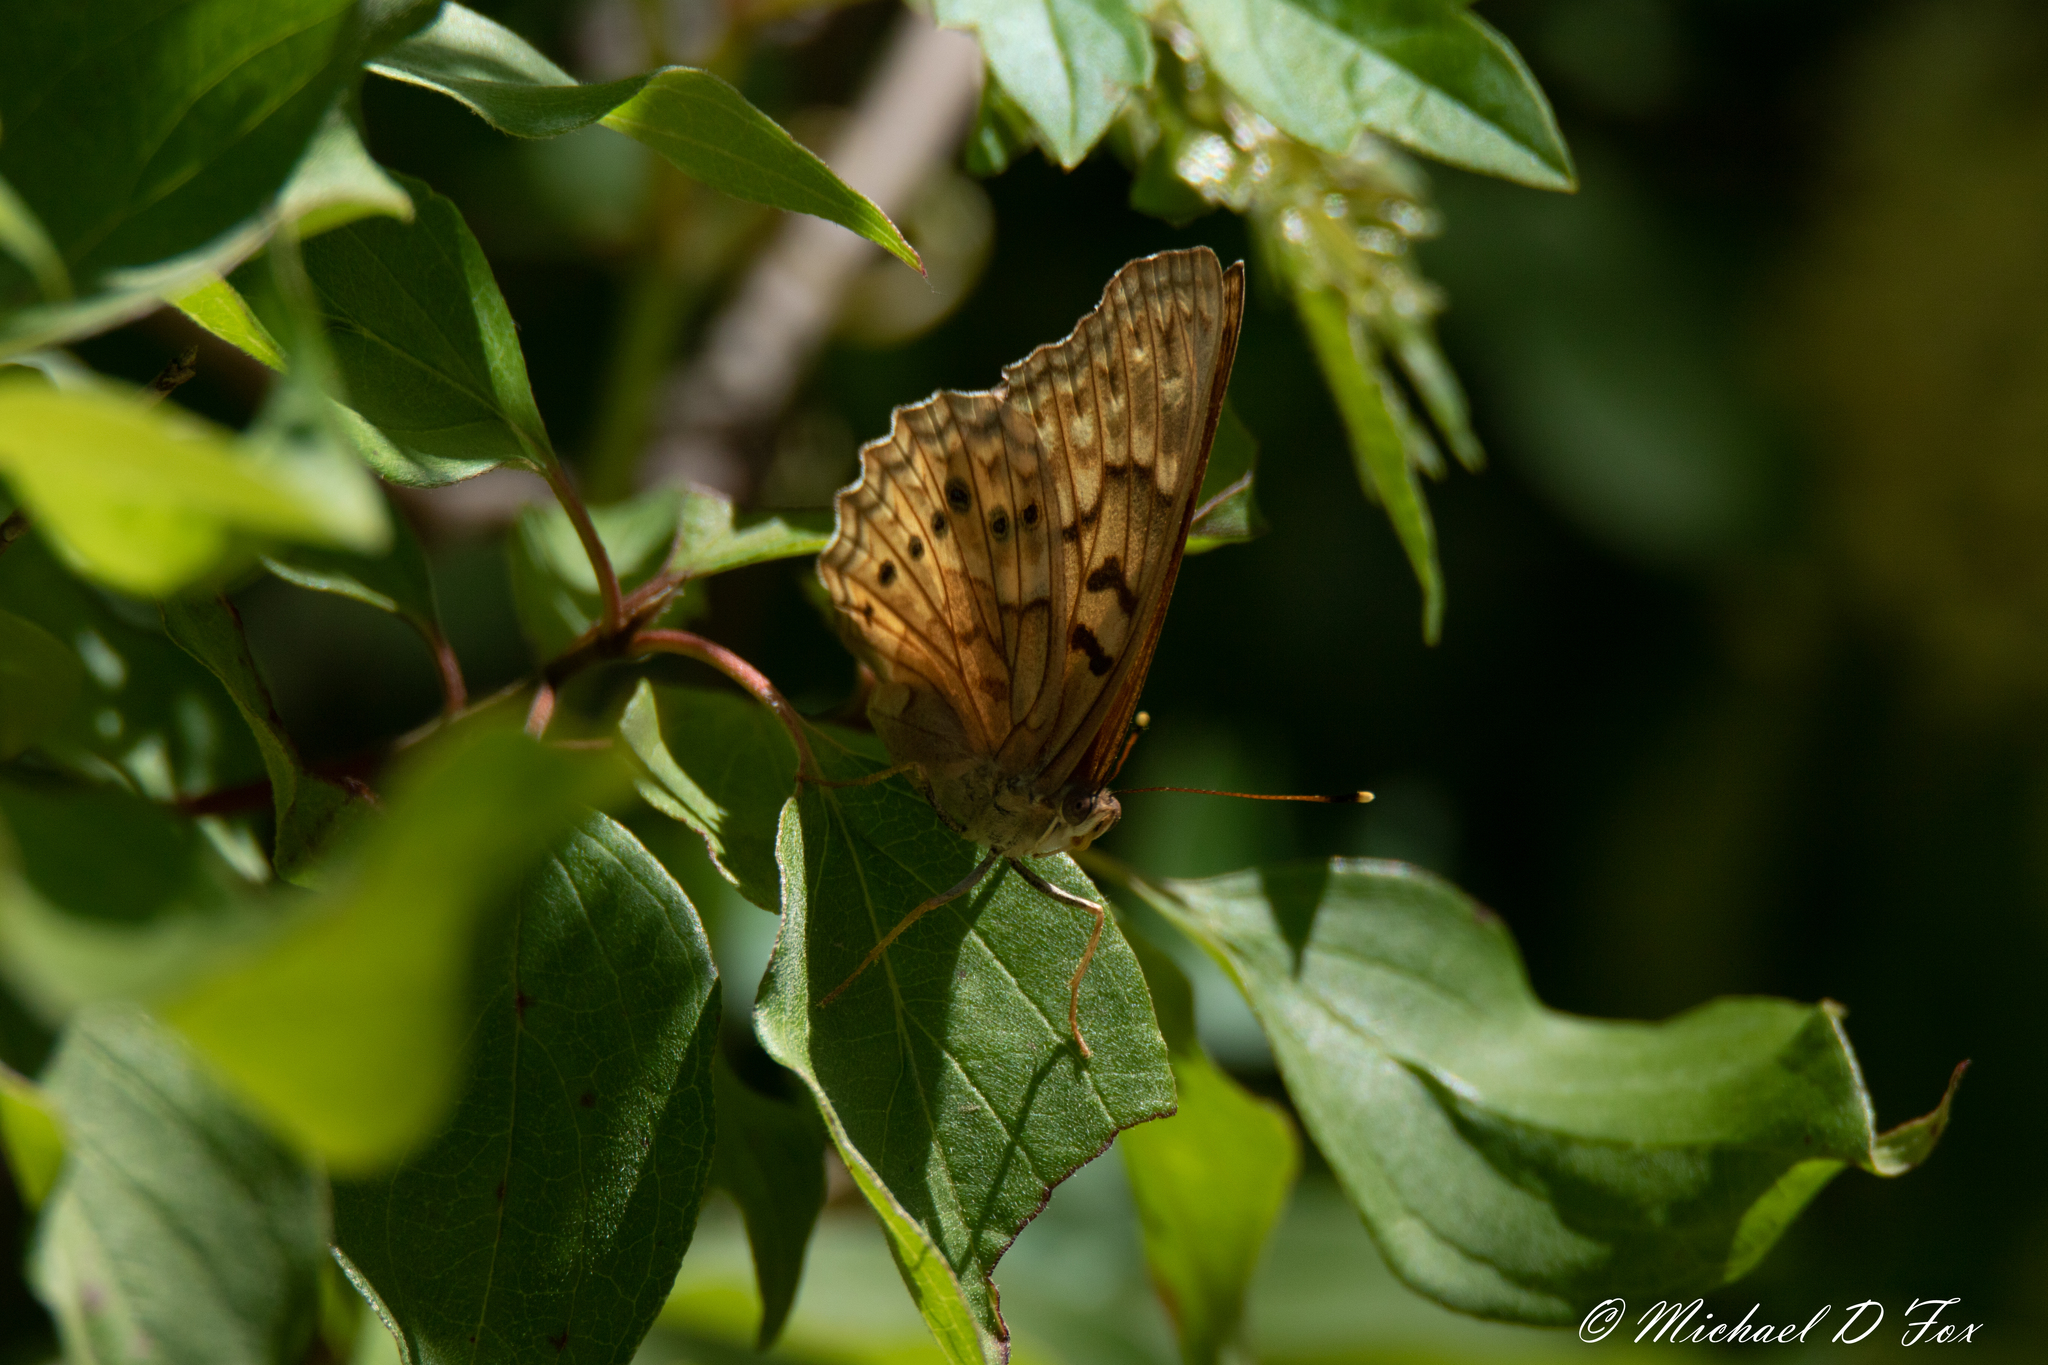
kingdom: Animalia
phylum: Arthropoda
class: Insecta
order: Lepidoptera
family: Nymphalidae
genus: Asterocampa
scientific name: Asterocampa clyton
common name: Tawny emperor
